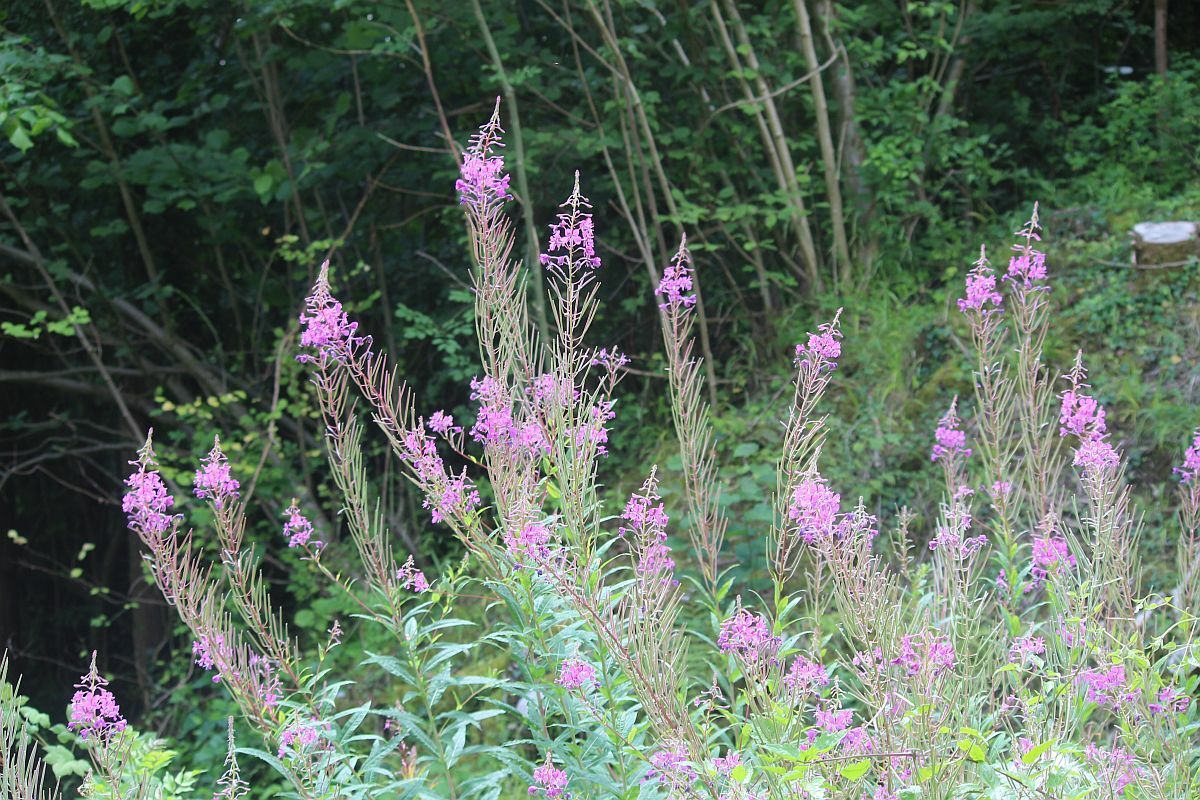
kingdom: Plantae
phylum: Tracheophyta
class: Magnoliopsida
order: Myrtales
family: Onagraceae
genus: Chamaenerion
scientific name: Chamaenerion angustifolium
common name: Fireweed
